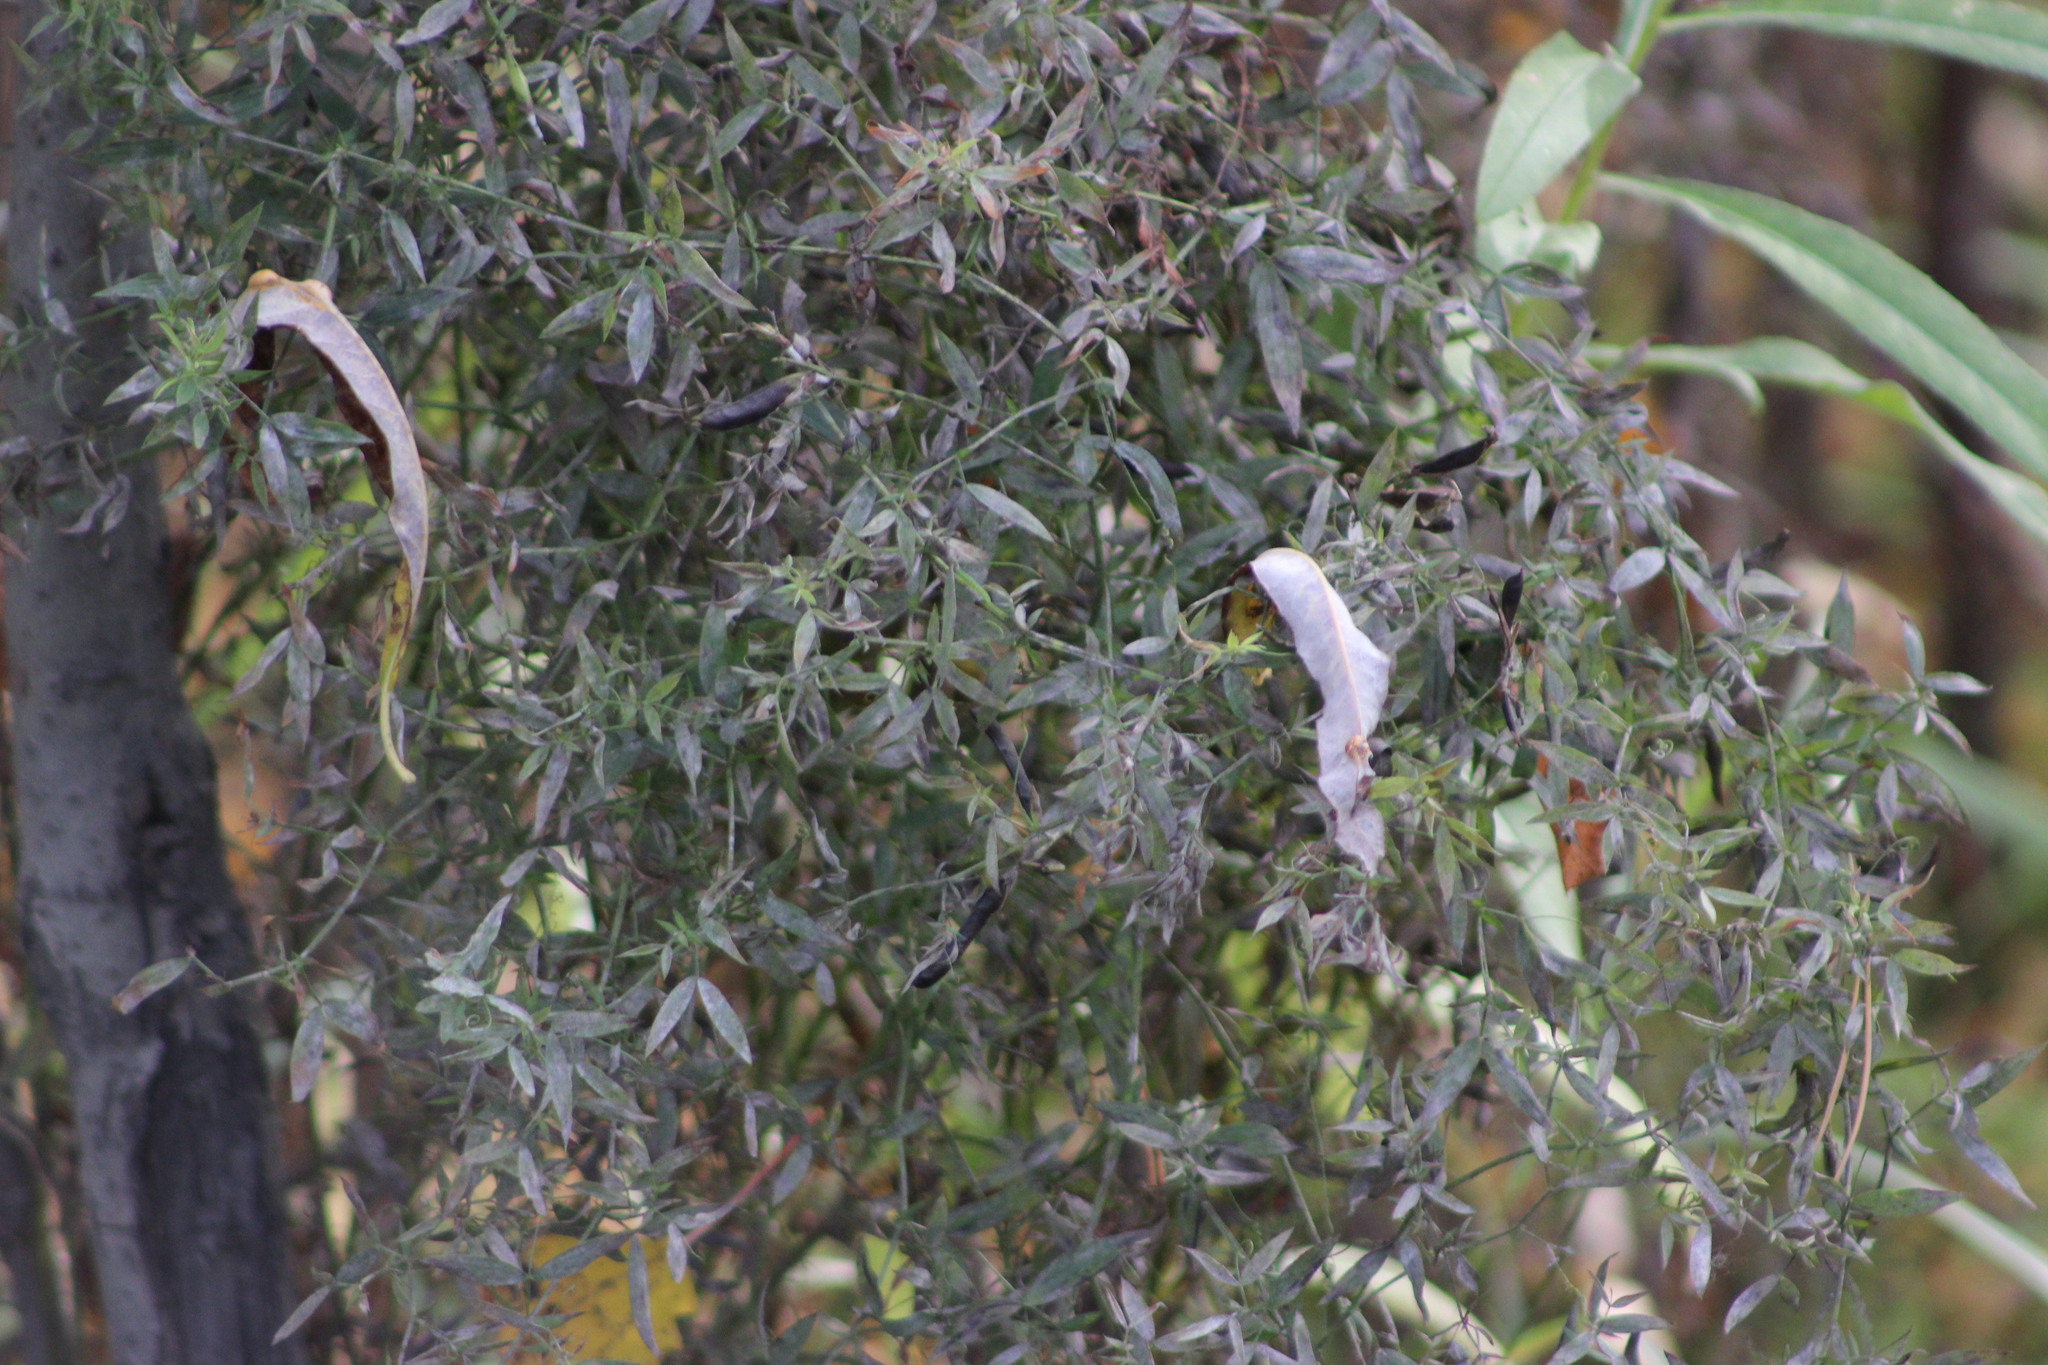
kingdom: Plantae
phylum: Tracheophyta
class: Magnoliopsida
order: Fabales
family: Fabaceae
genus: Lathyrus
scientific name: Lathyrus pratensis
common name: Meadow vetchling
